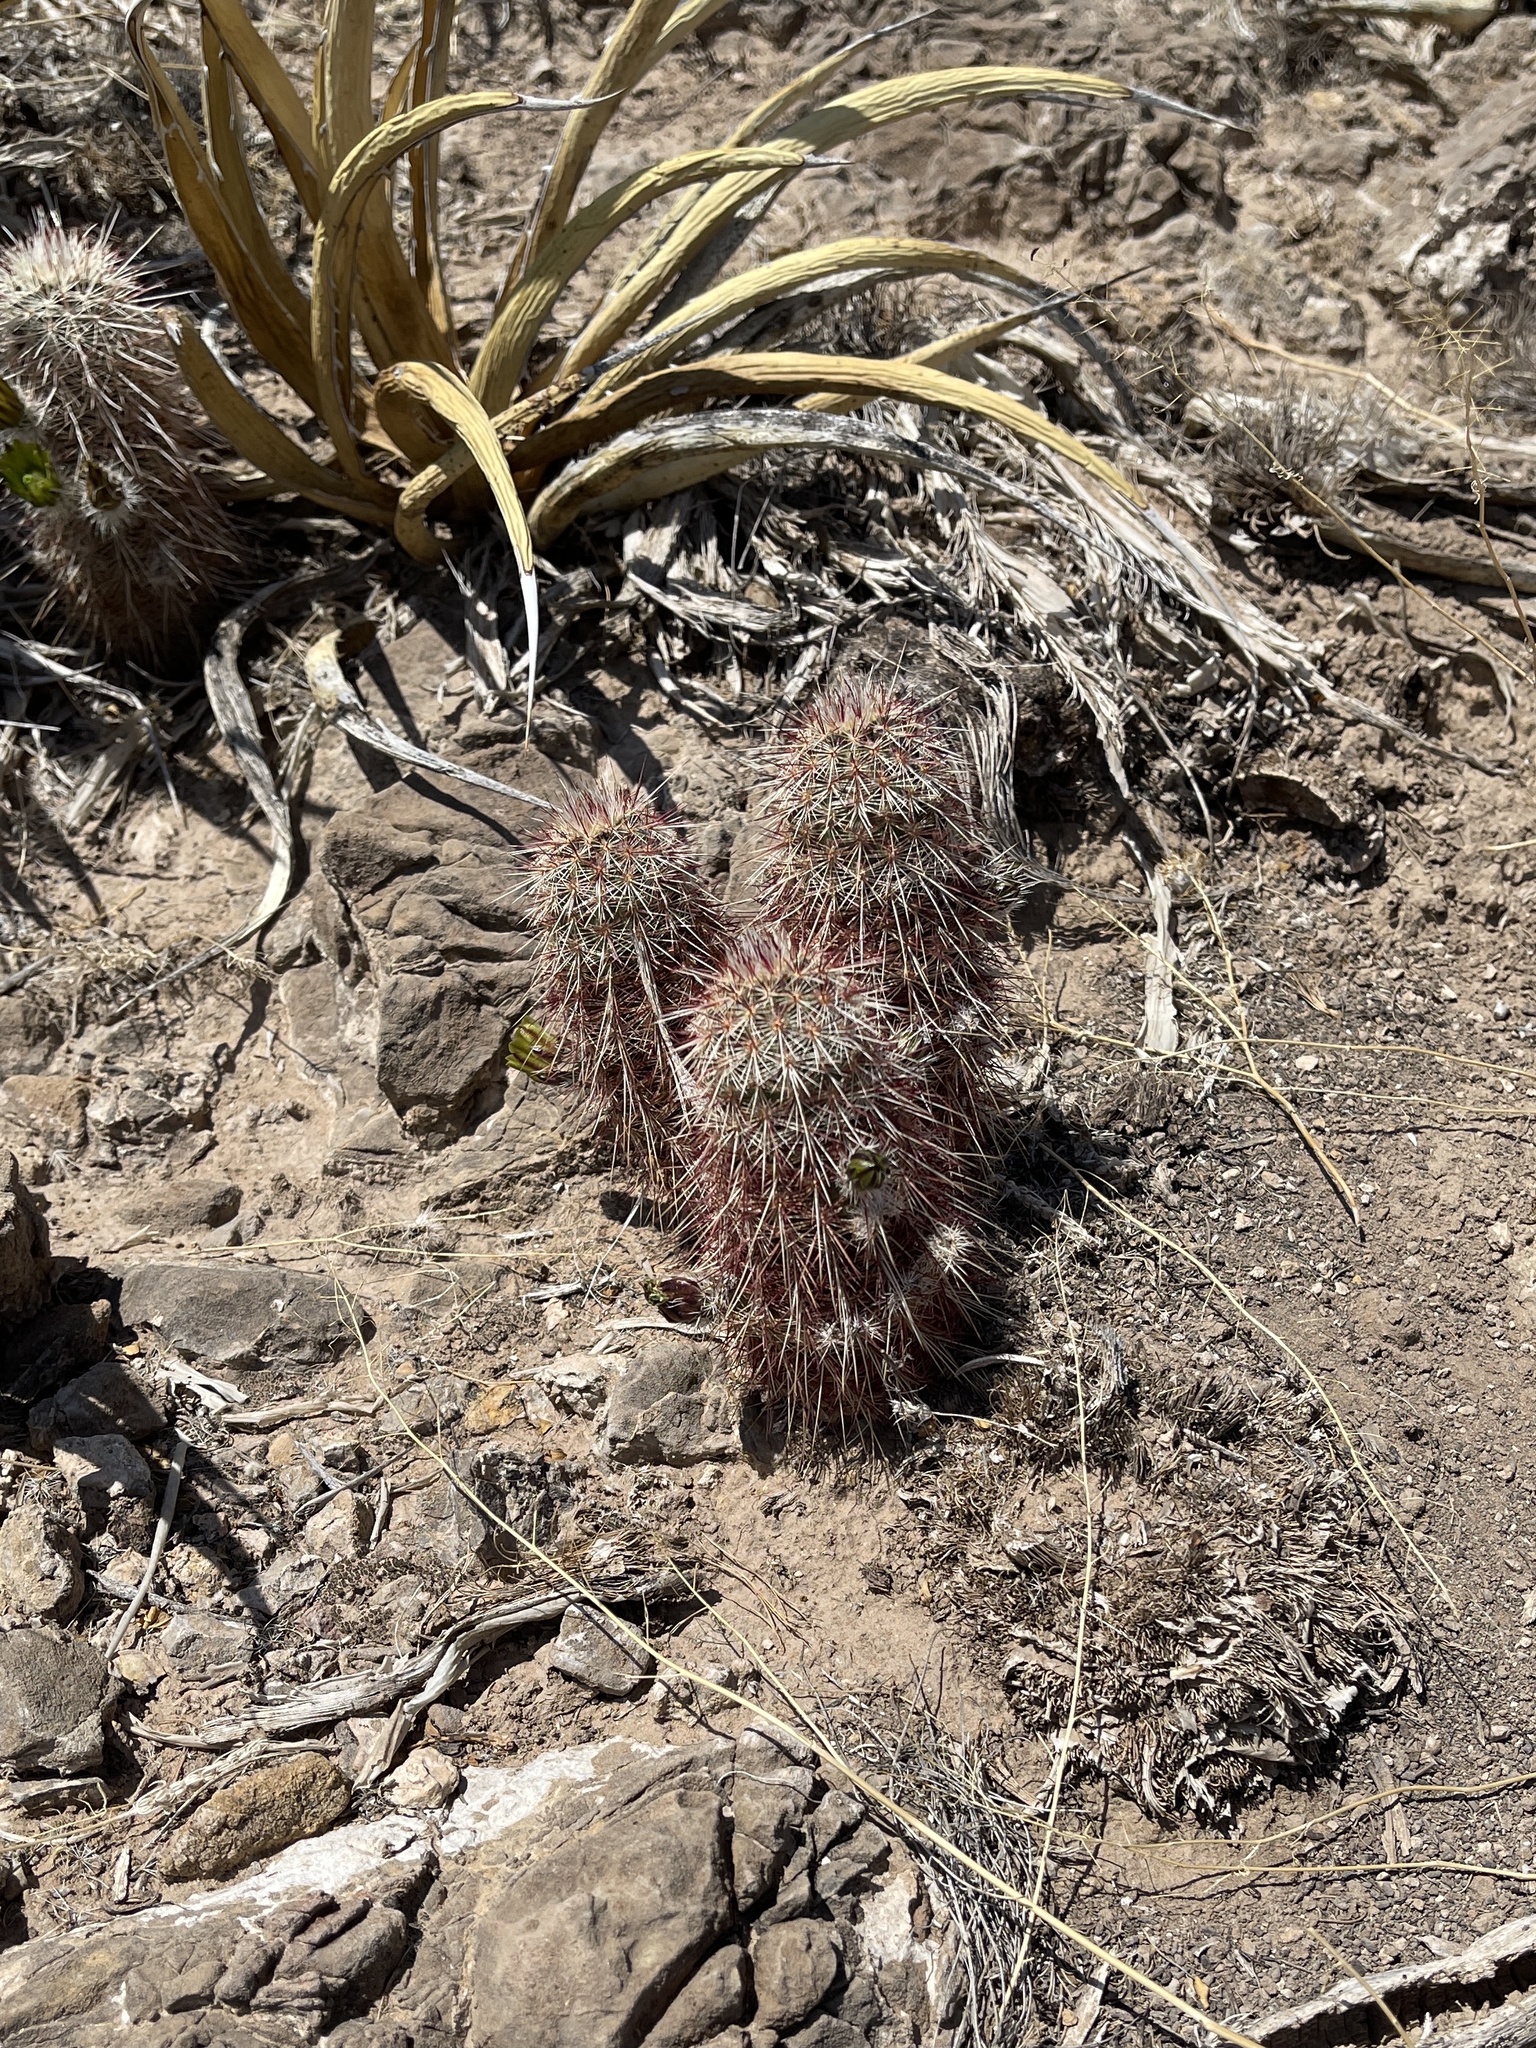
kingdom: Plantae
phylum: Tracheophyta
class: Magnoliopsida
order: Caryophyllales
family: Cactaceae
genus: Echinocereus
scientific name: Echinocereus viridiflorus
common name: Nylon hedgehog cactus
